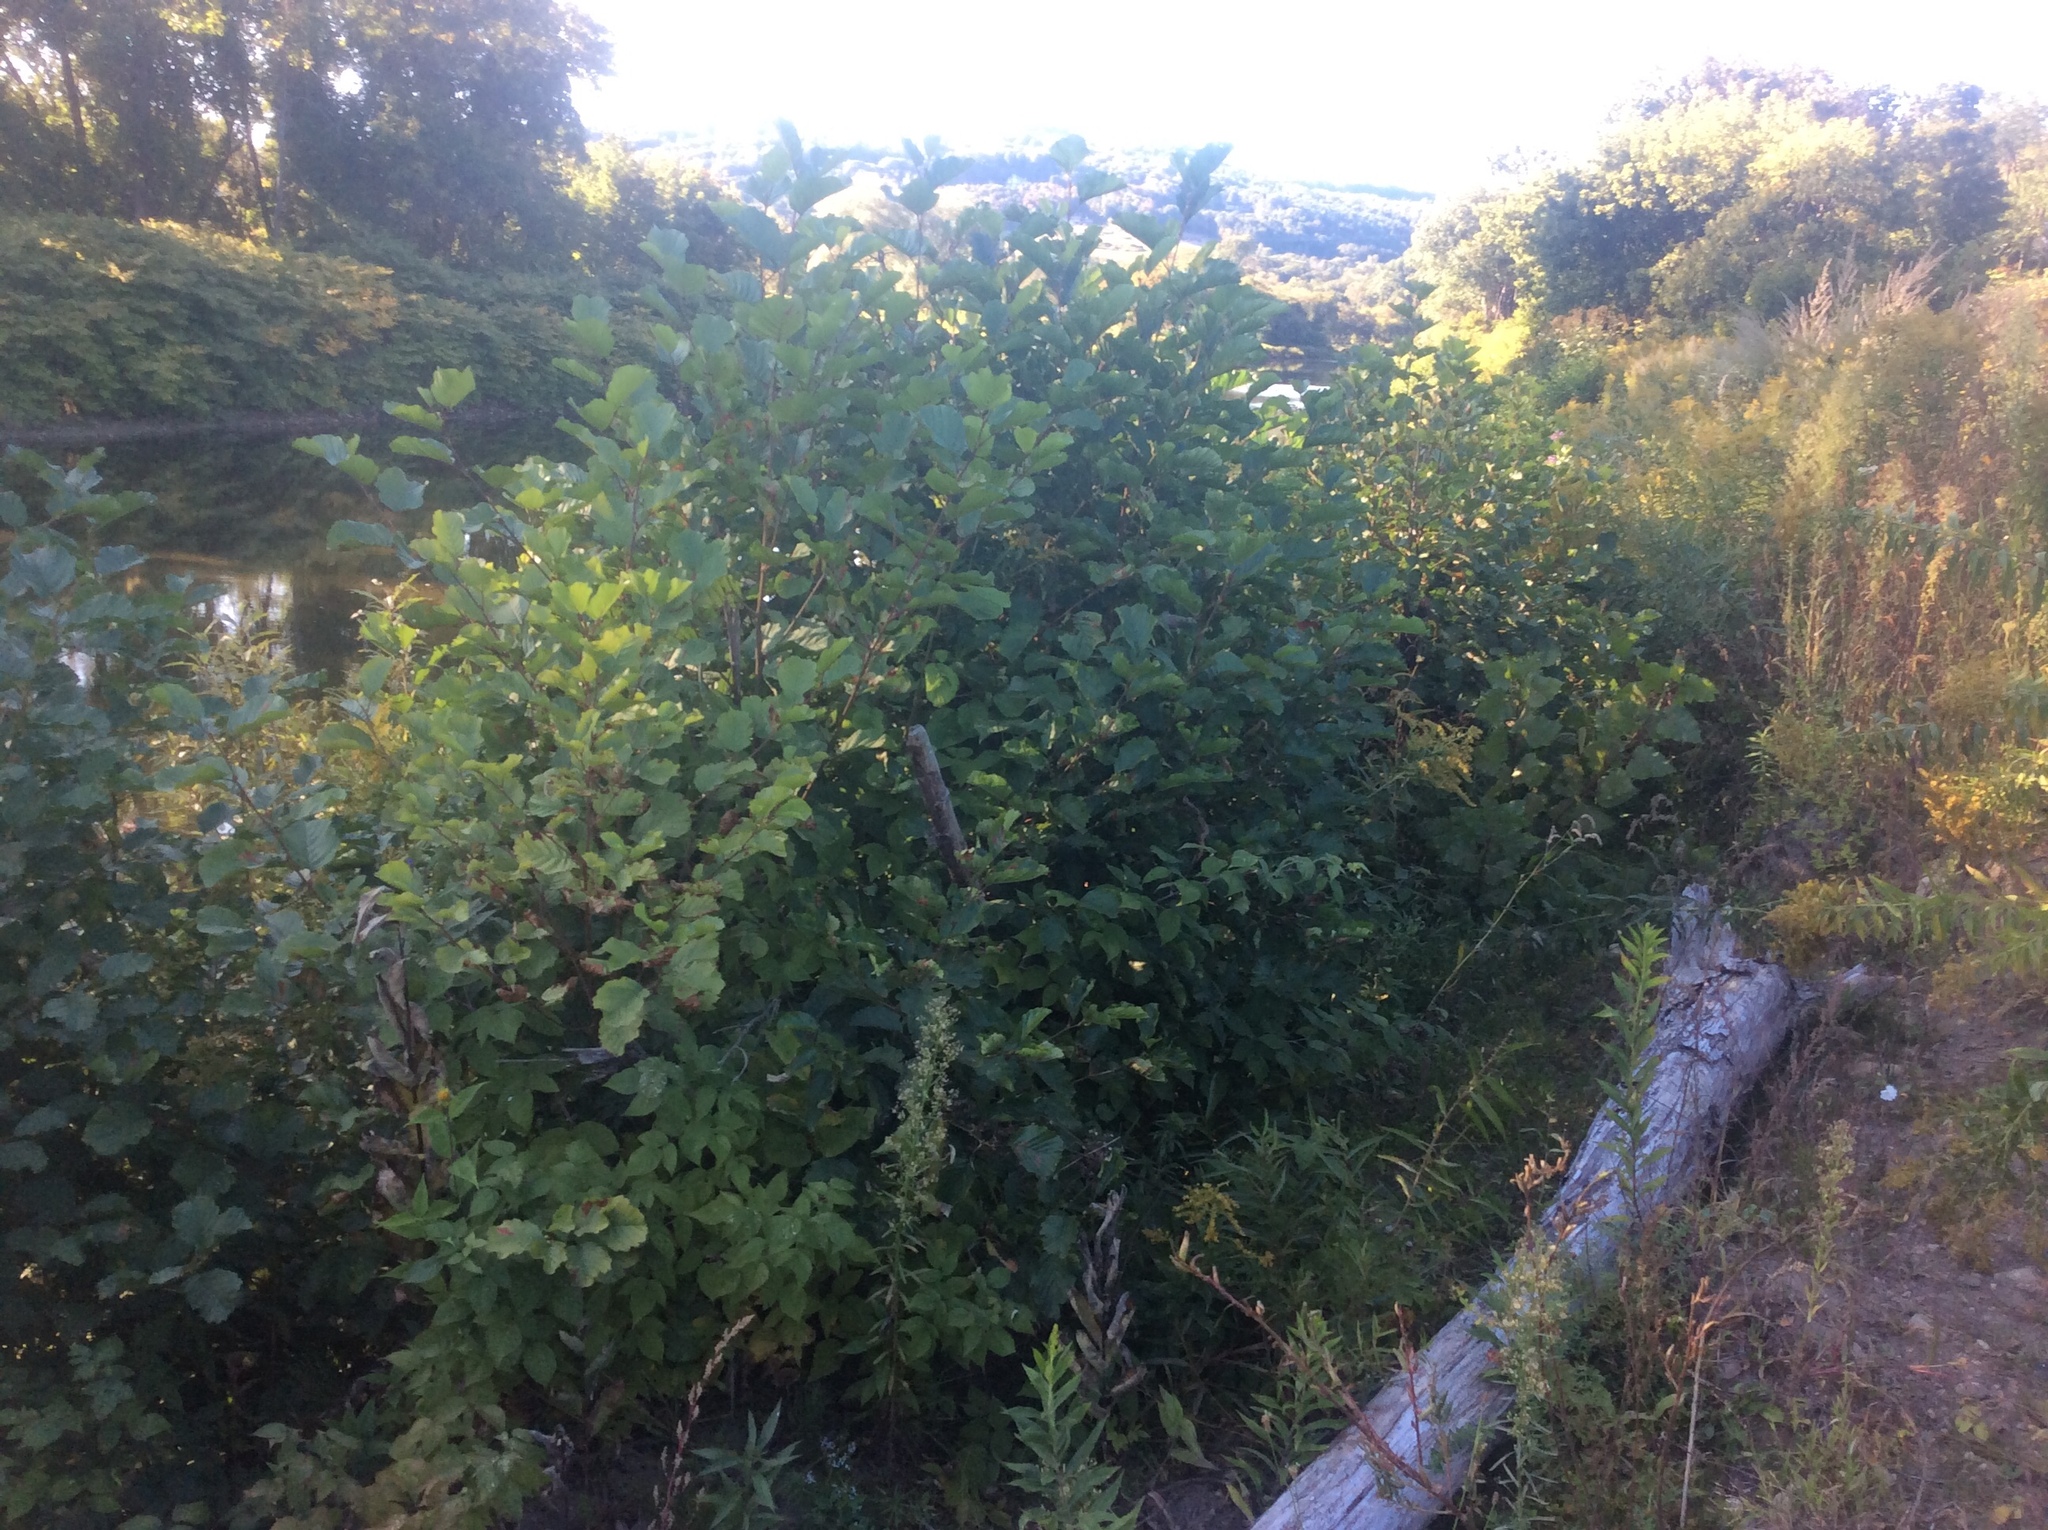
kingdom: Plantae
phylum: Tracheophyta
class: Magnoliopsida
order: Fagales
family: Betulaceae
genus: Alnus
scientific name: Alnus glutinosa
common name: Black alder
